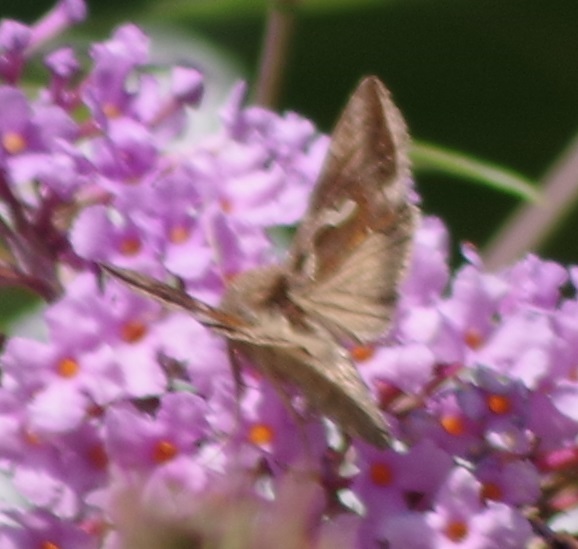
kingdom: Animalia
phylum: Arthropoda
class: Insecta
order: Lepidoptera
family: Noctuidae
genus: Macdunnoughia
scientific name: Macdunnoughia confusa
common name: Dewick's plusia
